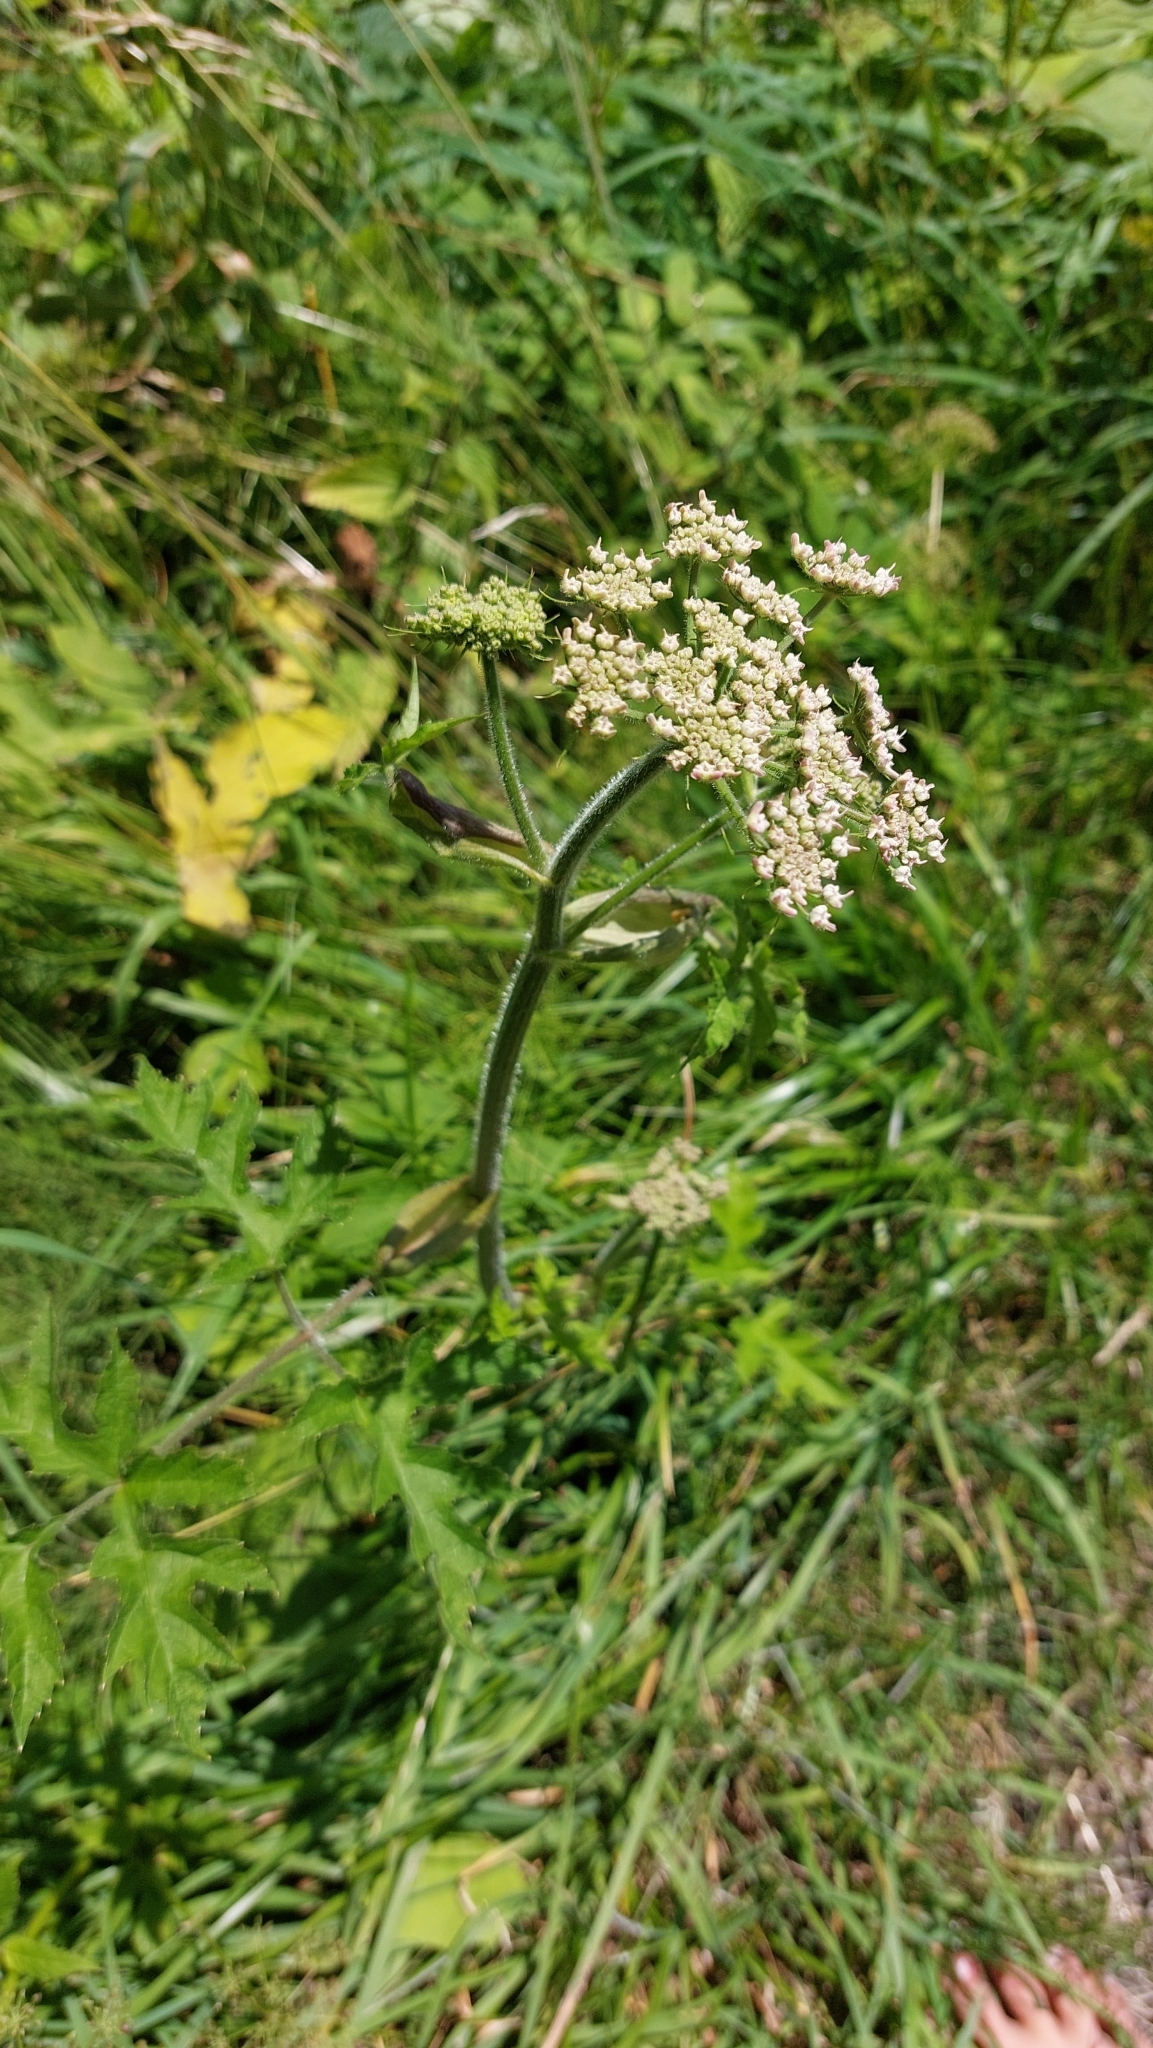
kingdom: Plantae
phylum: Tracheophyta
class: Magnoliopsida
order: Apiales
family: Apiaceae
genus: Heracleum
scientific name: Heracleum sphondylium
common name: Hogweed
